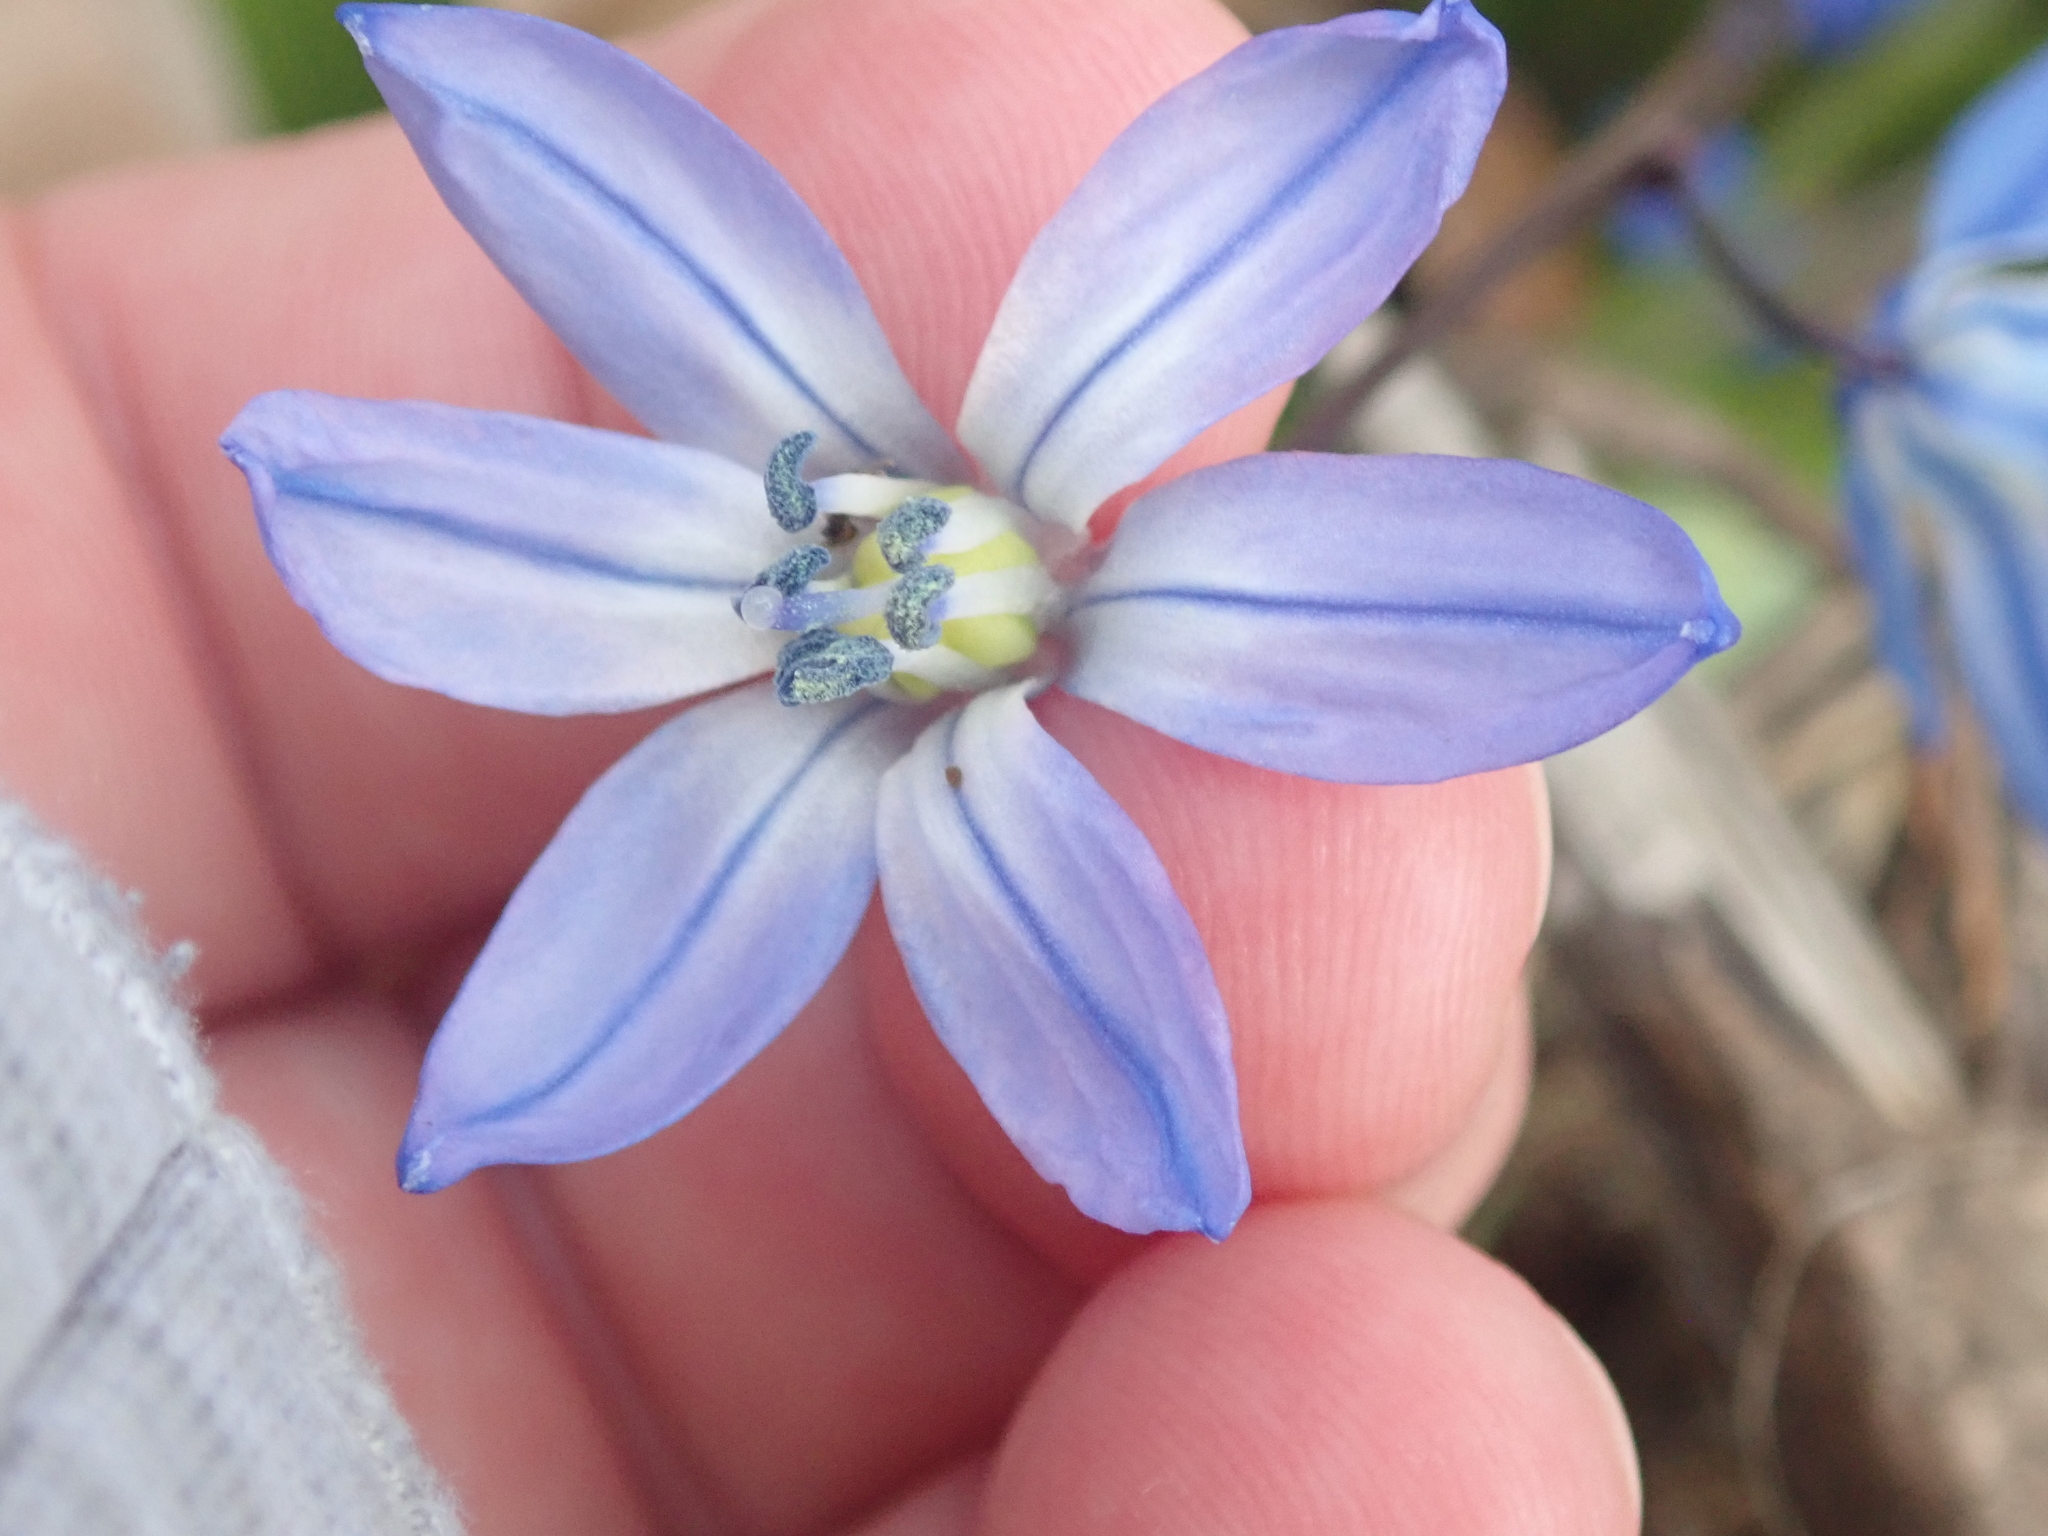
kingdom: Plantae
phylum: Tracheophyta
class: Liliopsida
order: Asparagales
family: Asparagaceae
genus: Scilla
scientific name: Scilla siberica
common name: Siberian squill
